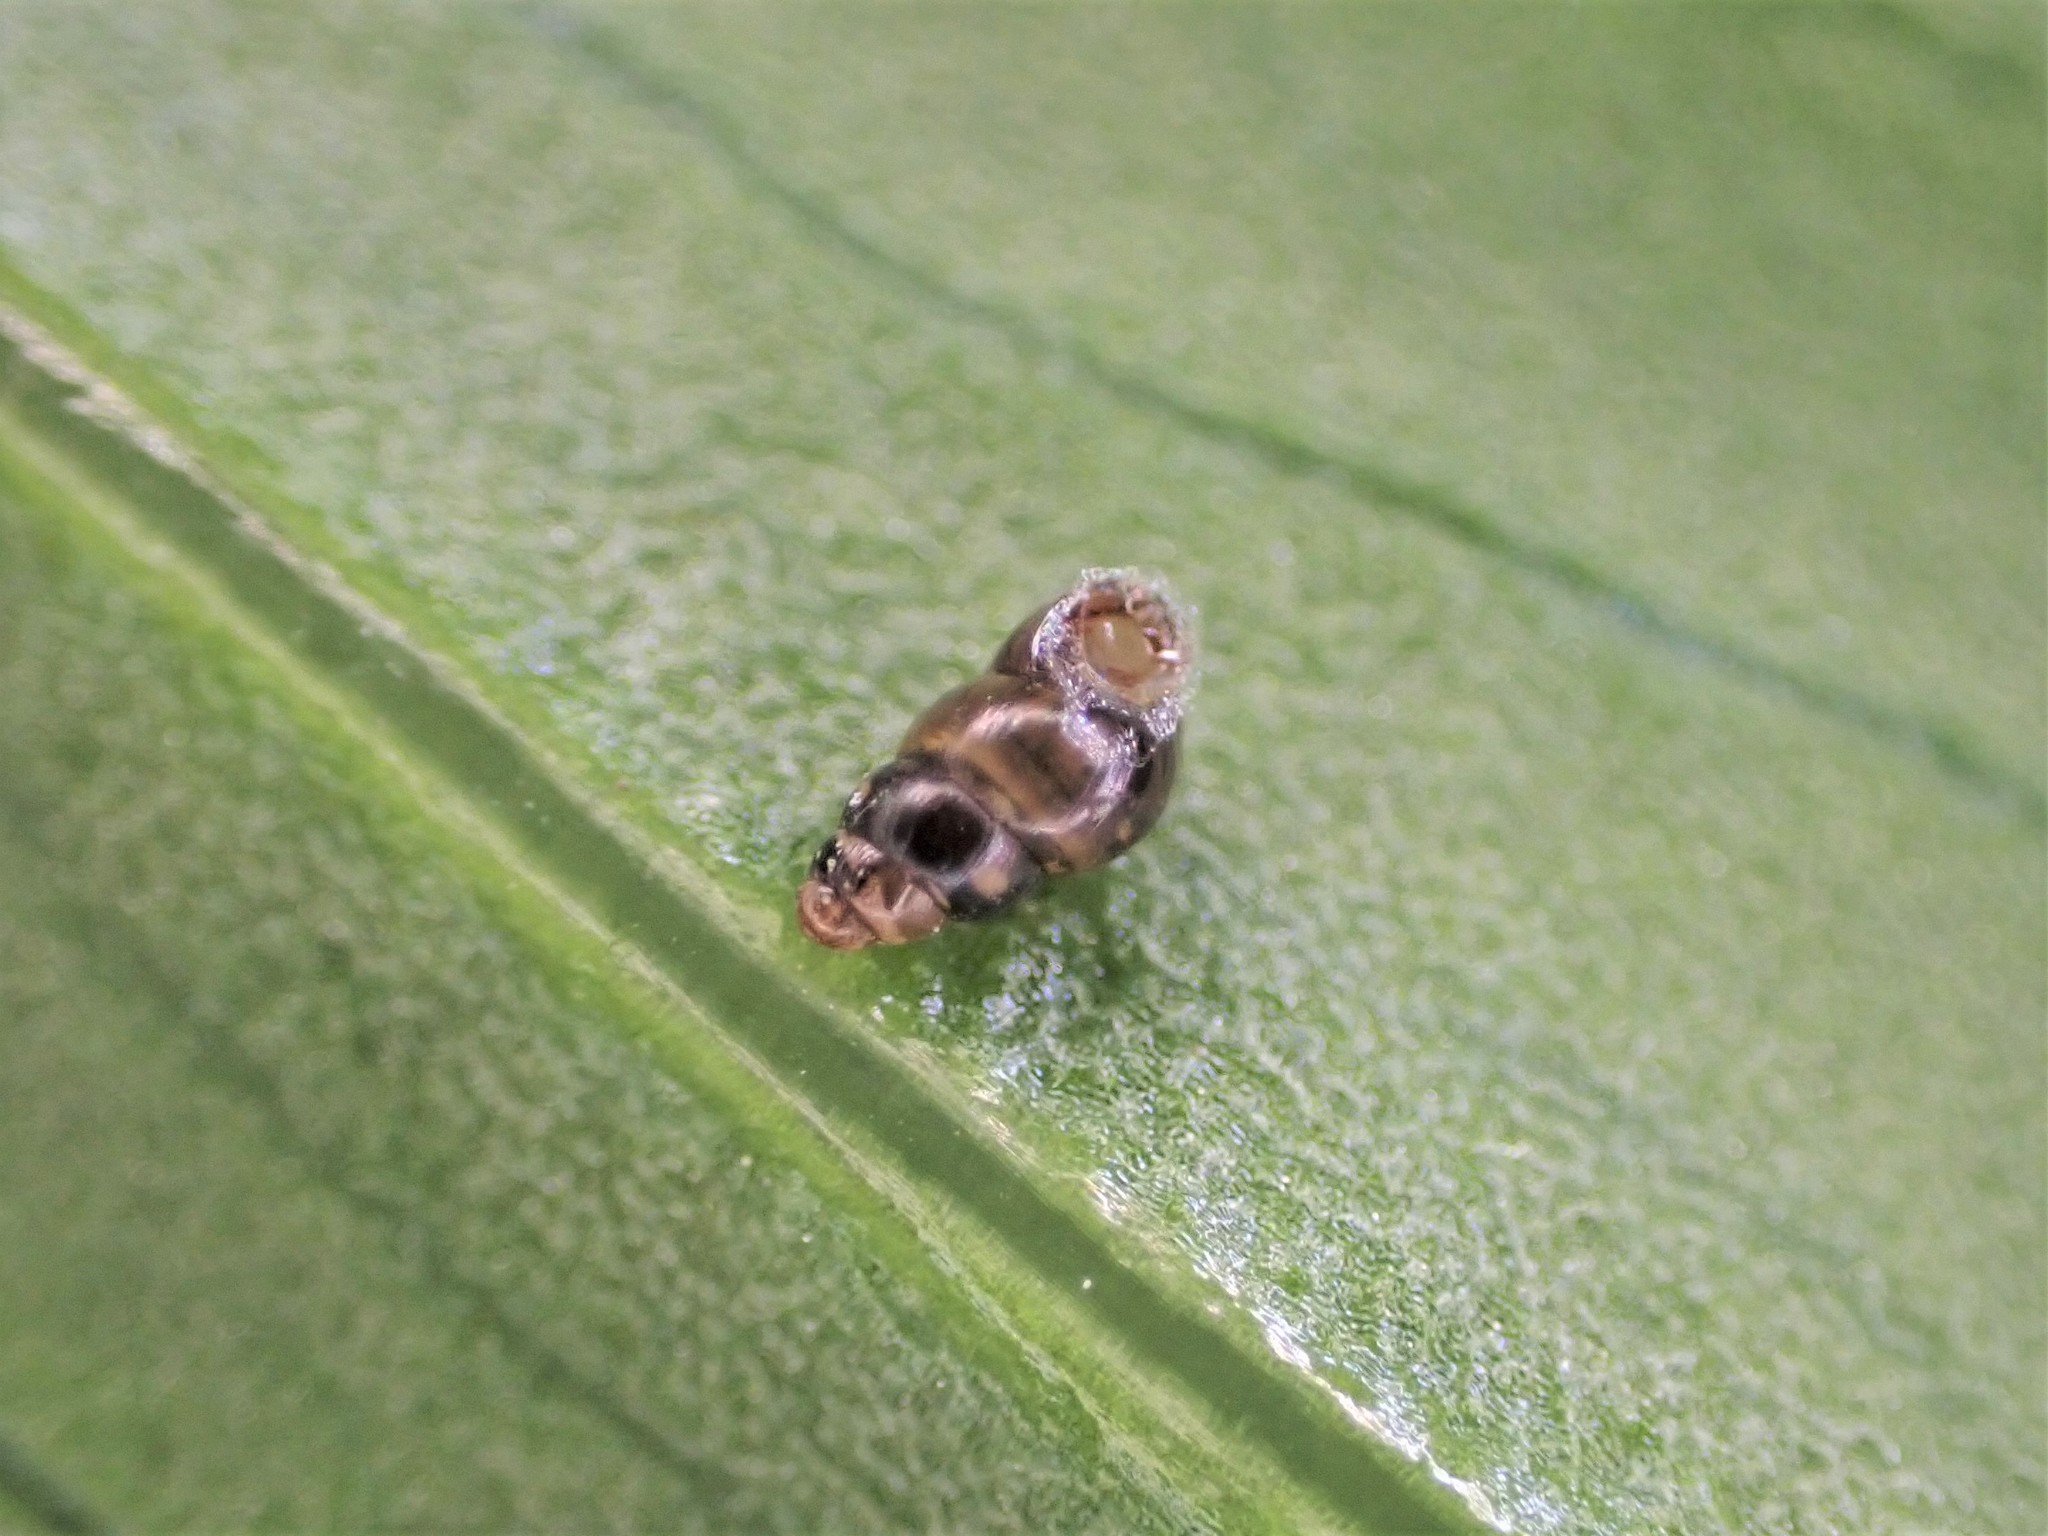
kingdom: Animalia
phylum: Mollusca
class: Gastropoda
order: Stylommatophora
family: Achatinellidae
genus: Tornatellinops
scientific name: Tornatellinops novoseelandicus
